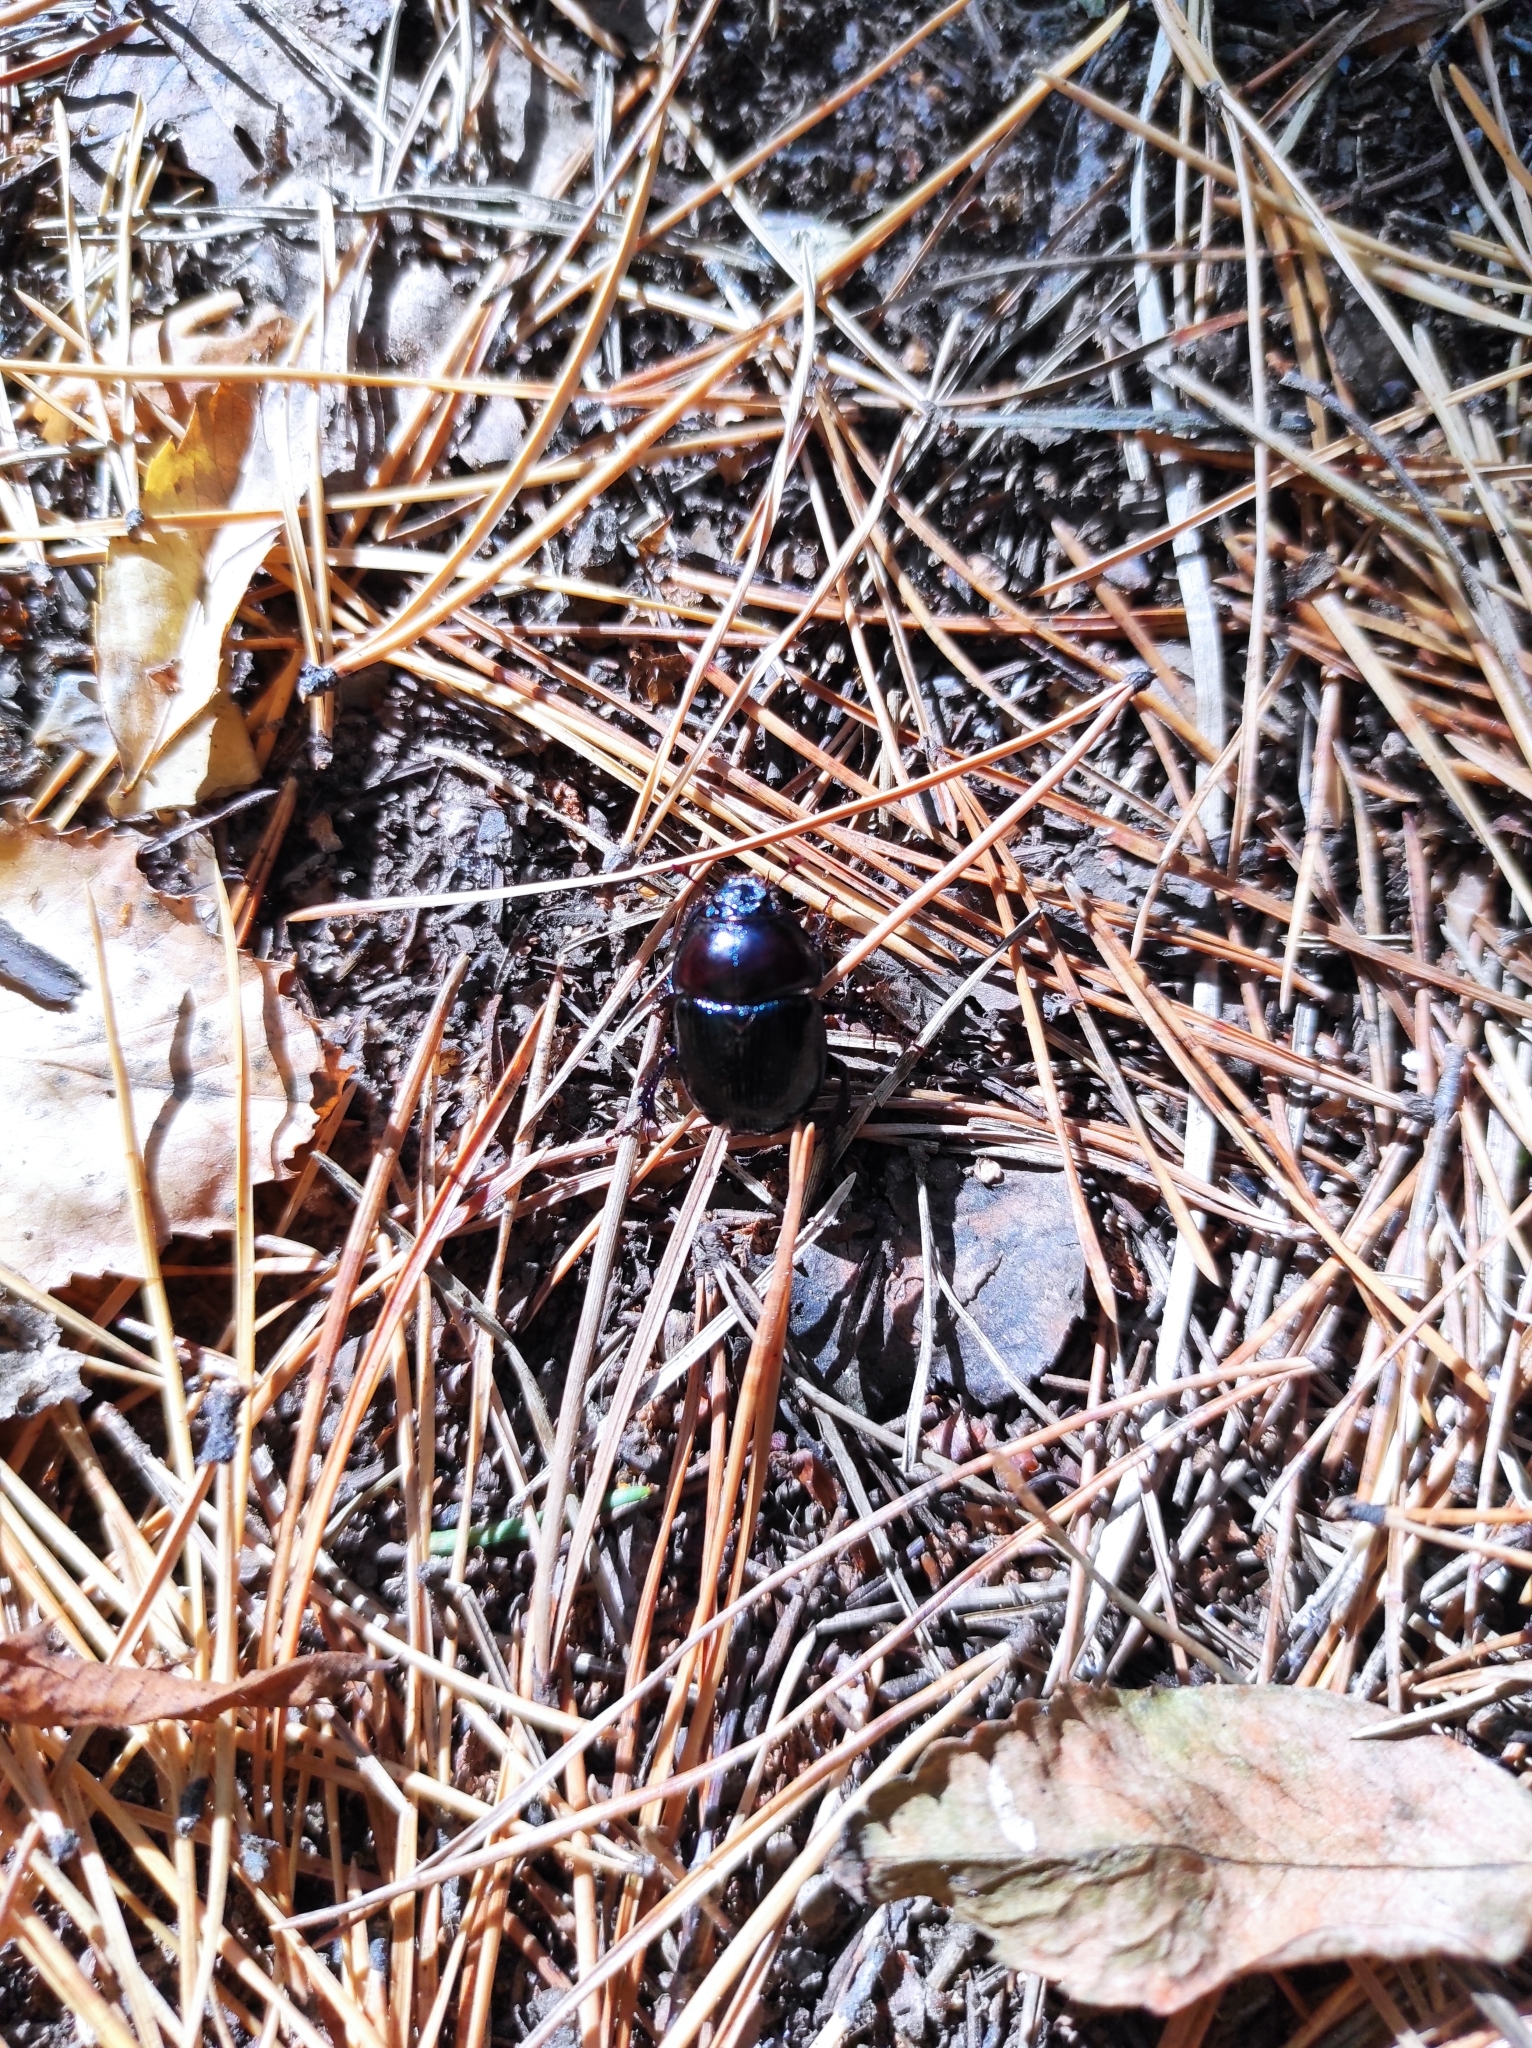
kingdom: Animalia
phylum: Arthropoda
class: Insecta
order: Coleoptera
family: Geotrupidae
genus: Anoplotrupes
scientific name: Anoplotrupes stercorosus
